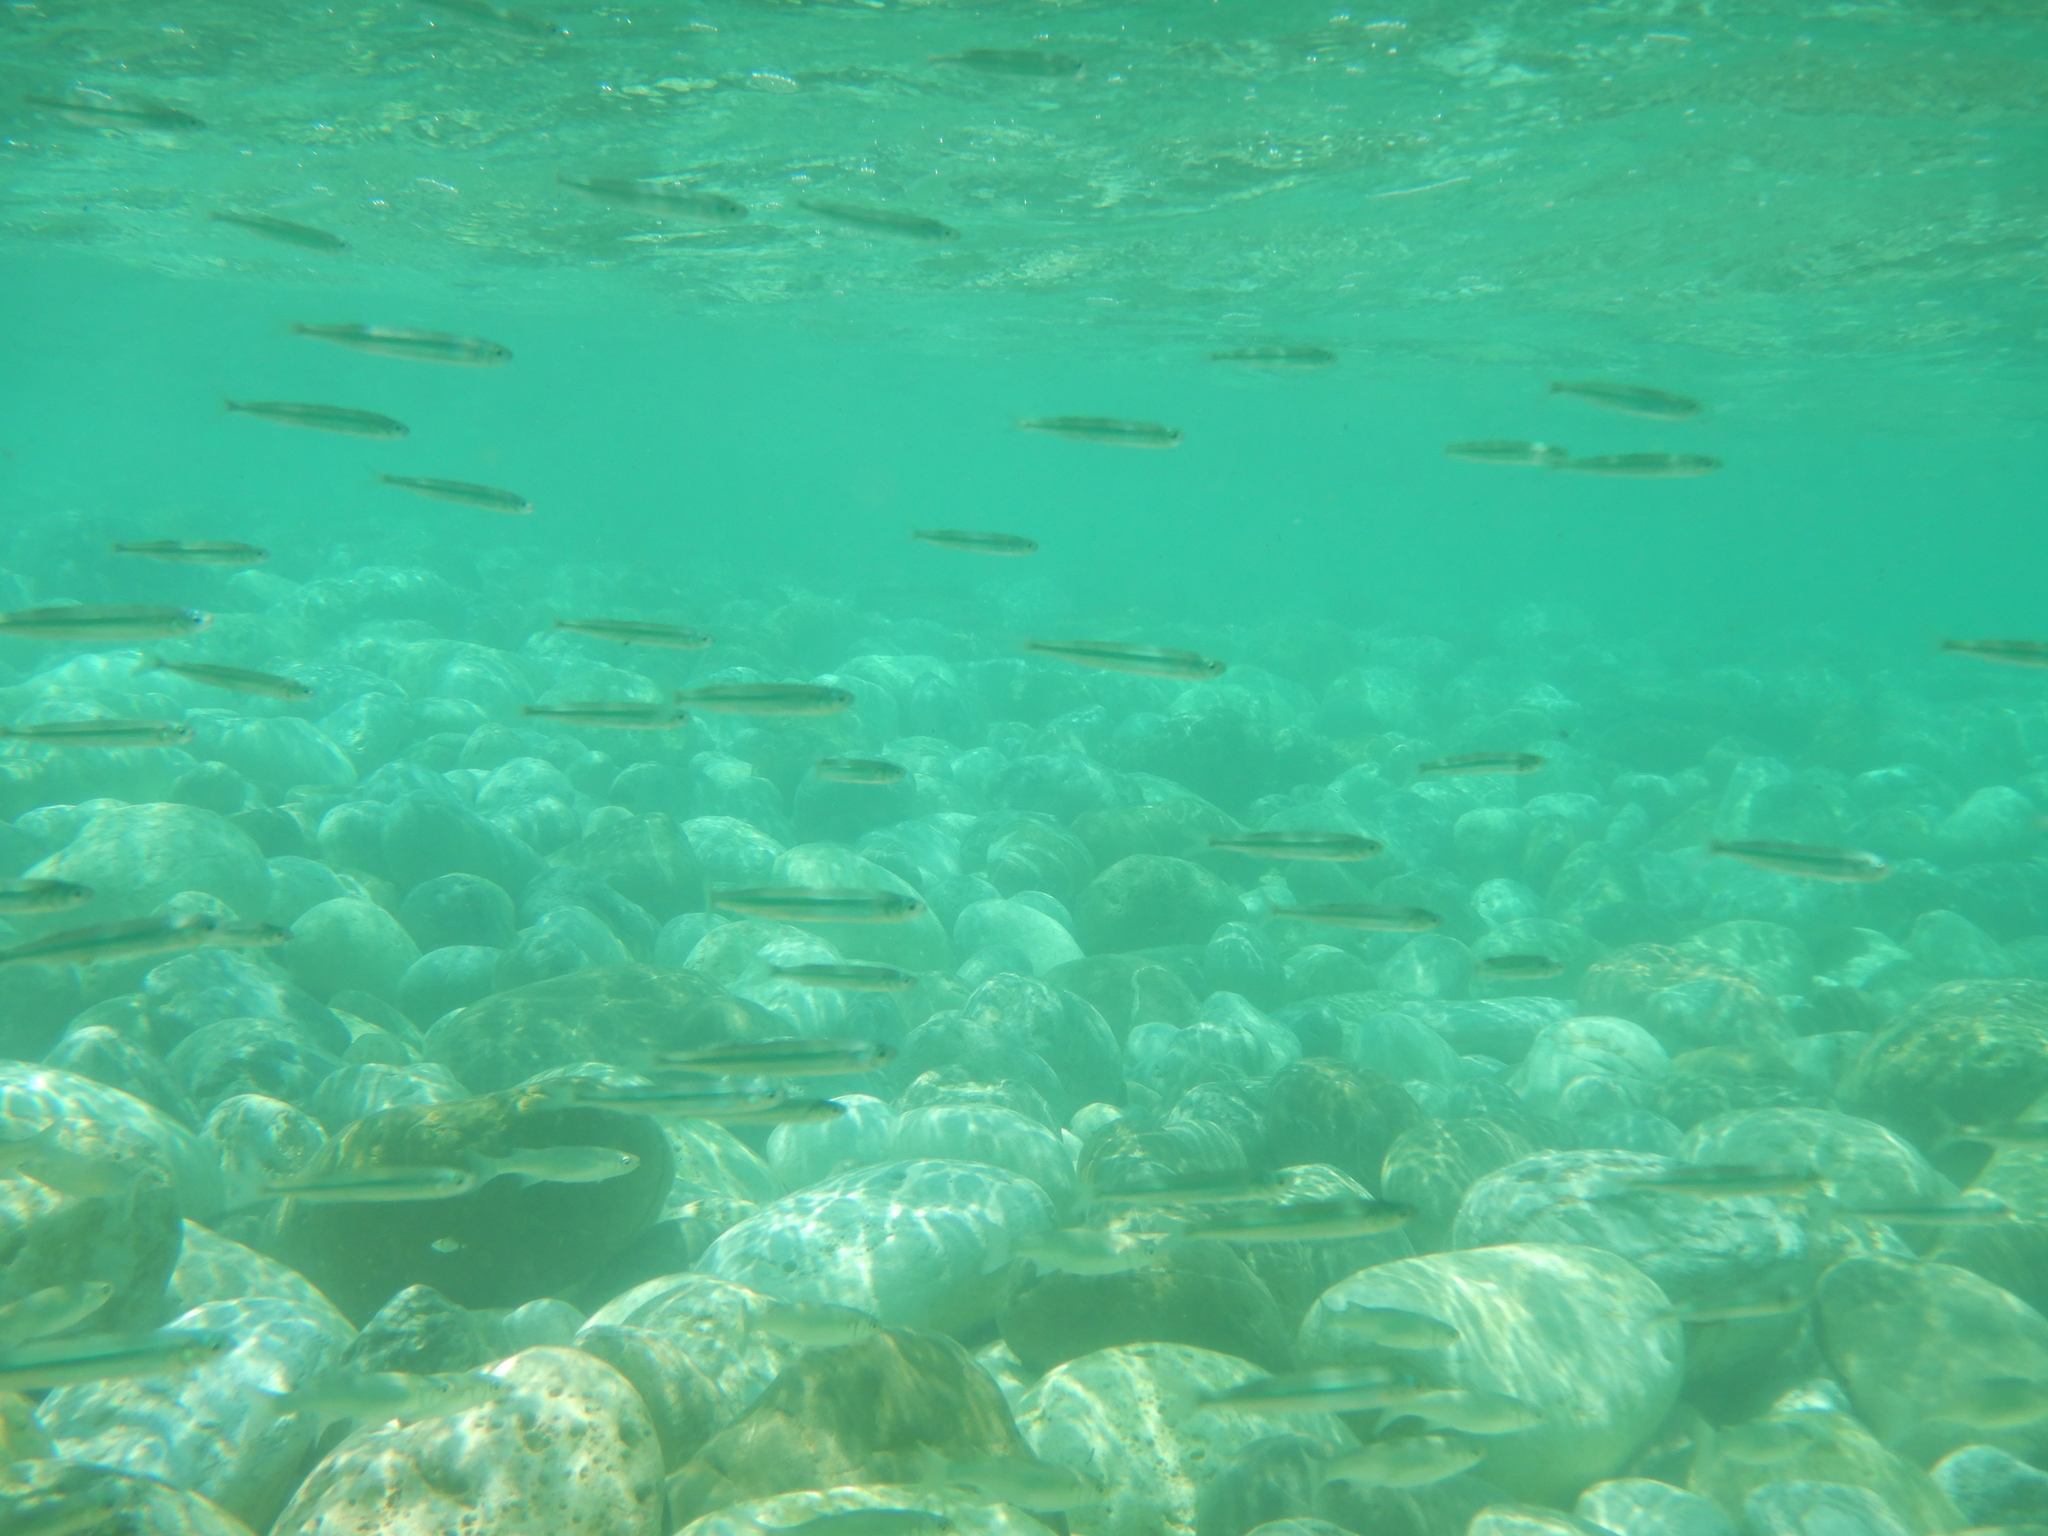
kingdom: Animalia
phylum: Chordata
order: Atheriniformes
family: Atherinidae
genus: Atherina
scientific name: Atherina hepsetus
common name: Mediterranean sand smelt
